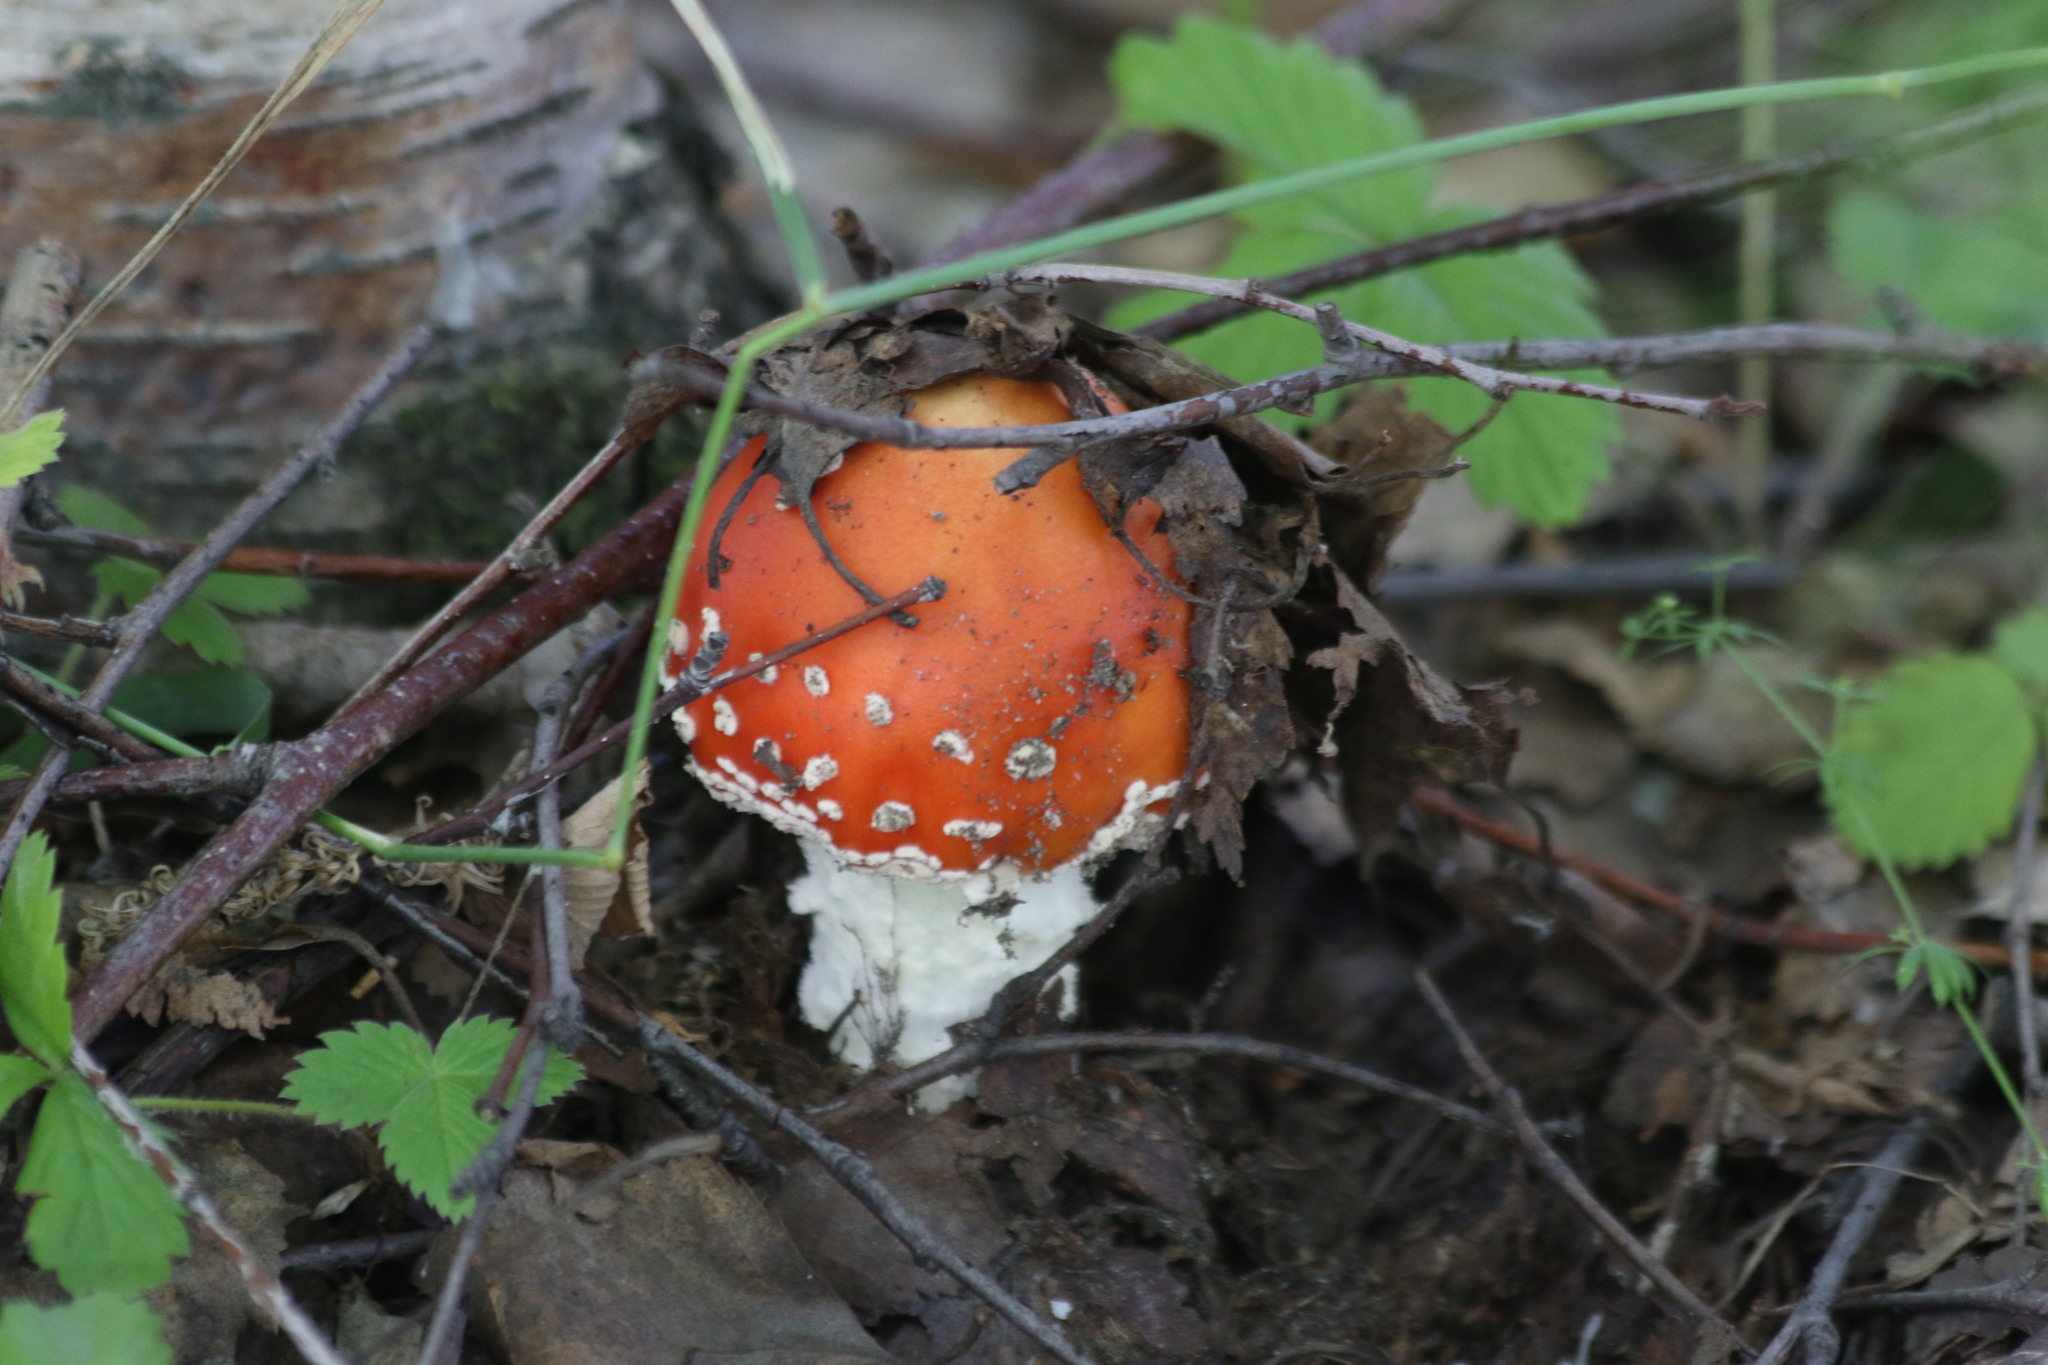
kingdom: Fungi
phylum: Basidiomycota
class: Agaricomycetes
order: Agaricales
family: Amanitaceae
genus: Amanita
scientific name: Amanita muscaria
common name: Fly agaric
